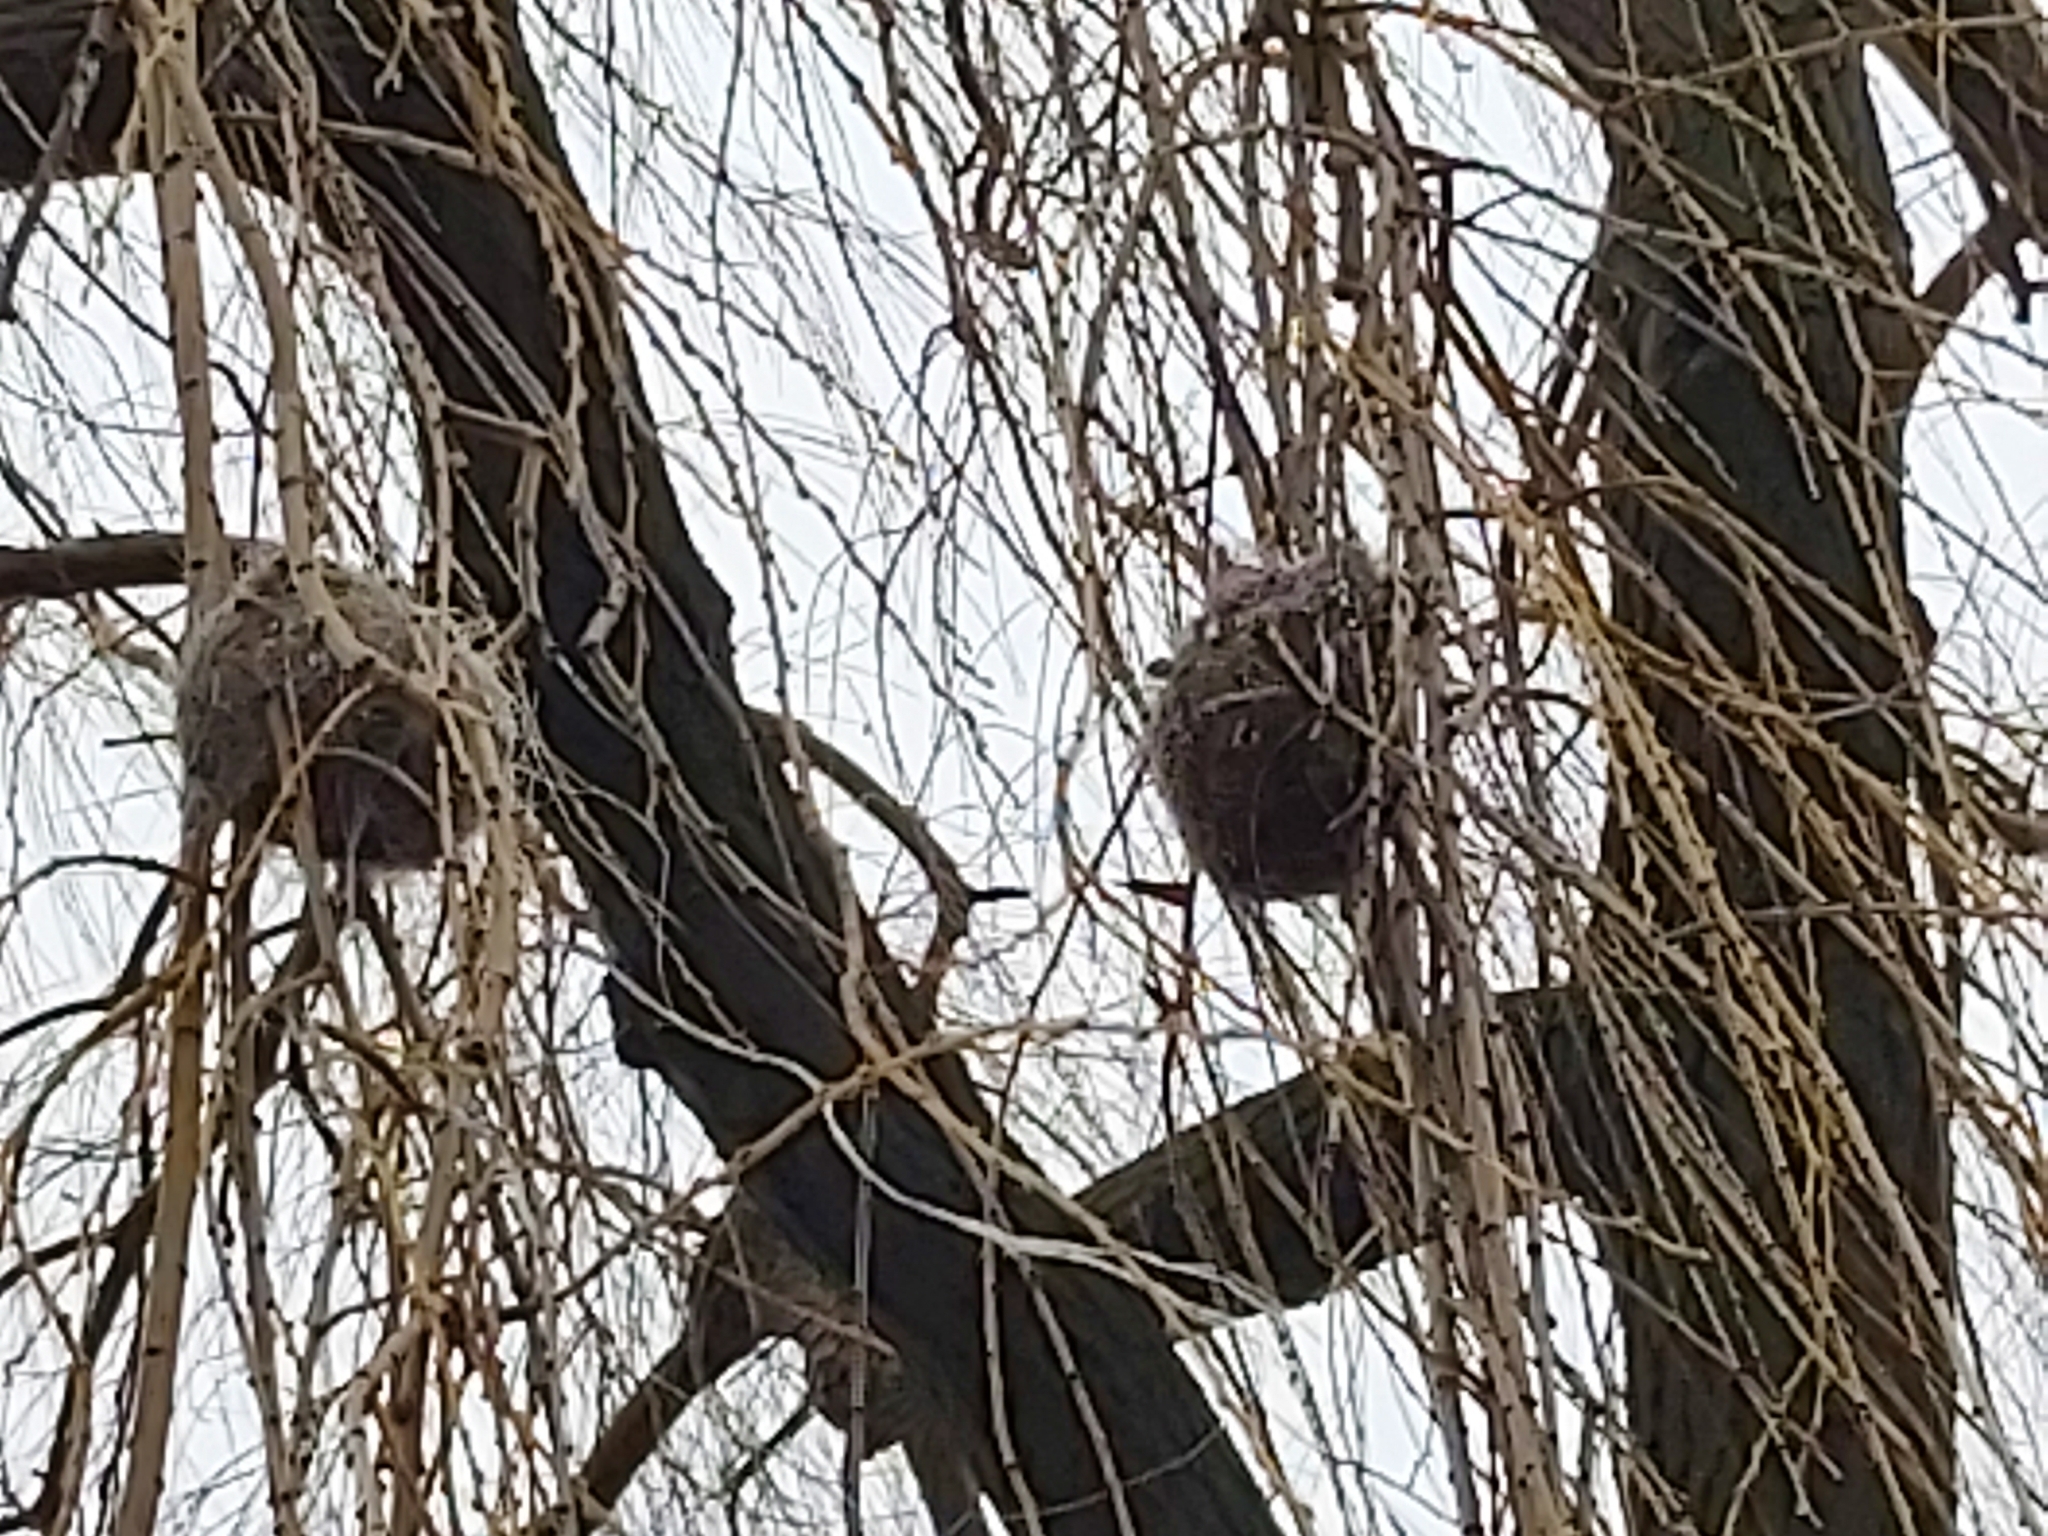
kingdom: Animalia
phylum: Chordata
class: Aves
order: Passeriformes
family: Icteridae
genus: Icterus
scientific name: Icterus galbula
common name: Baltimore oriole
